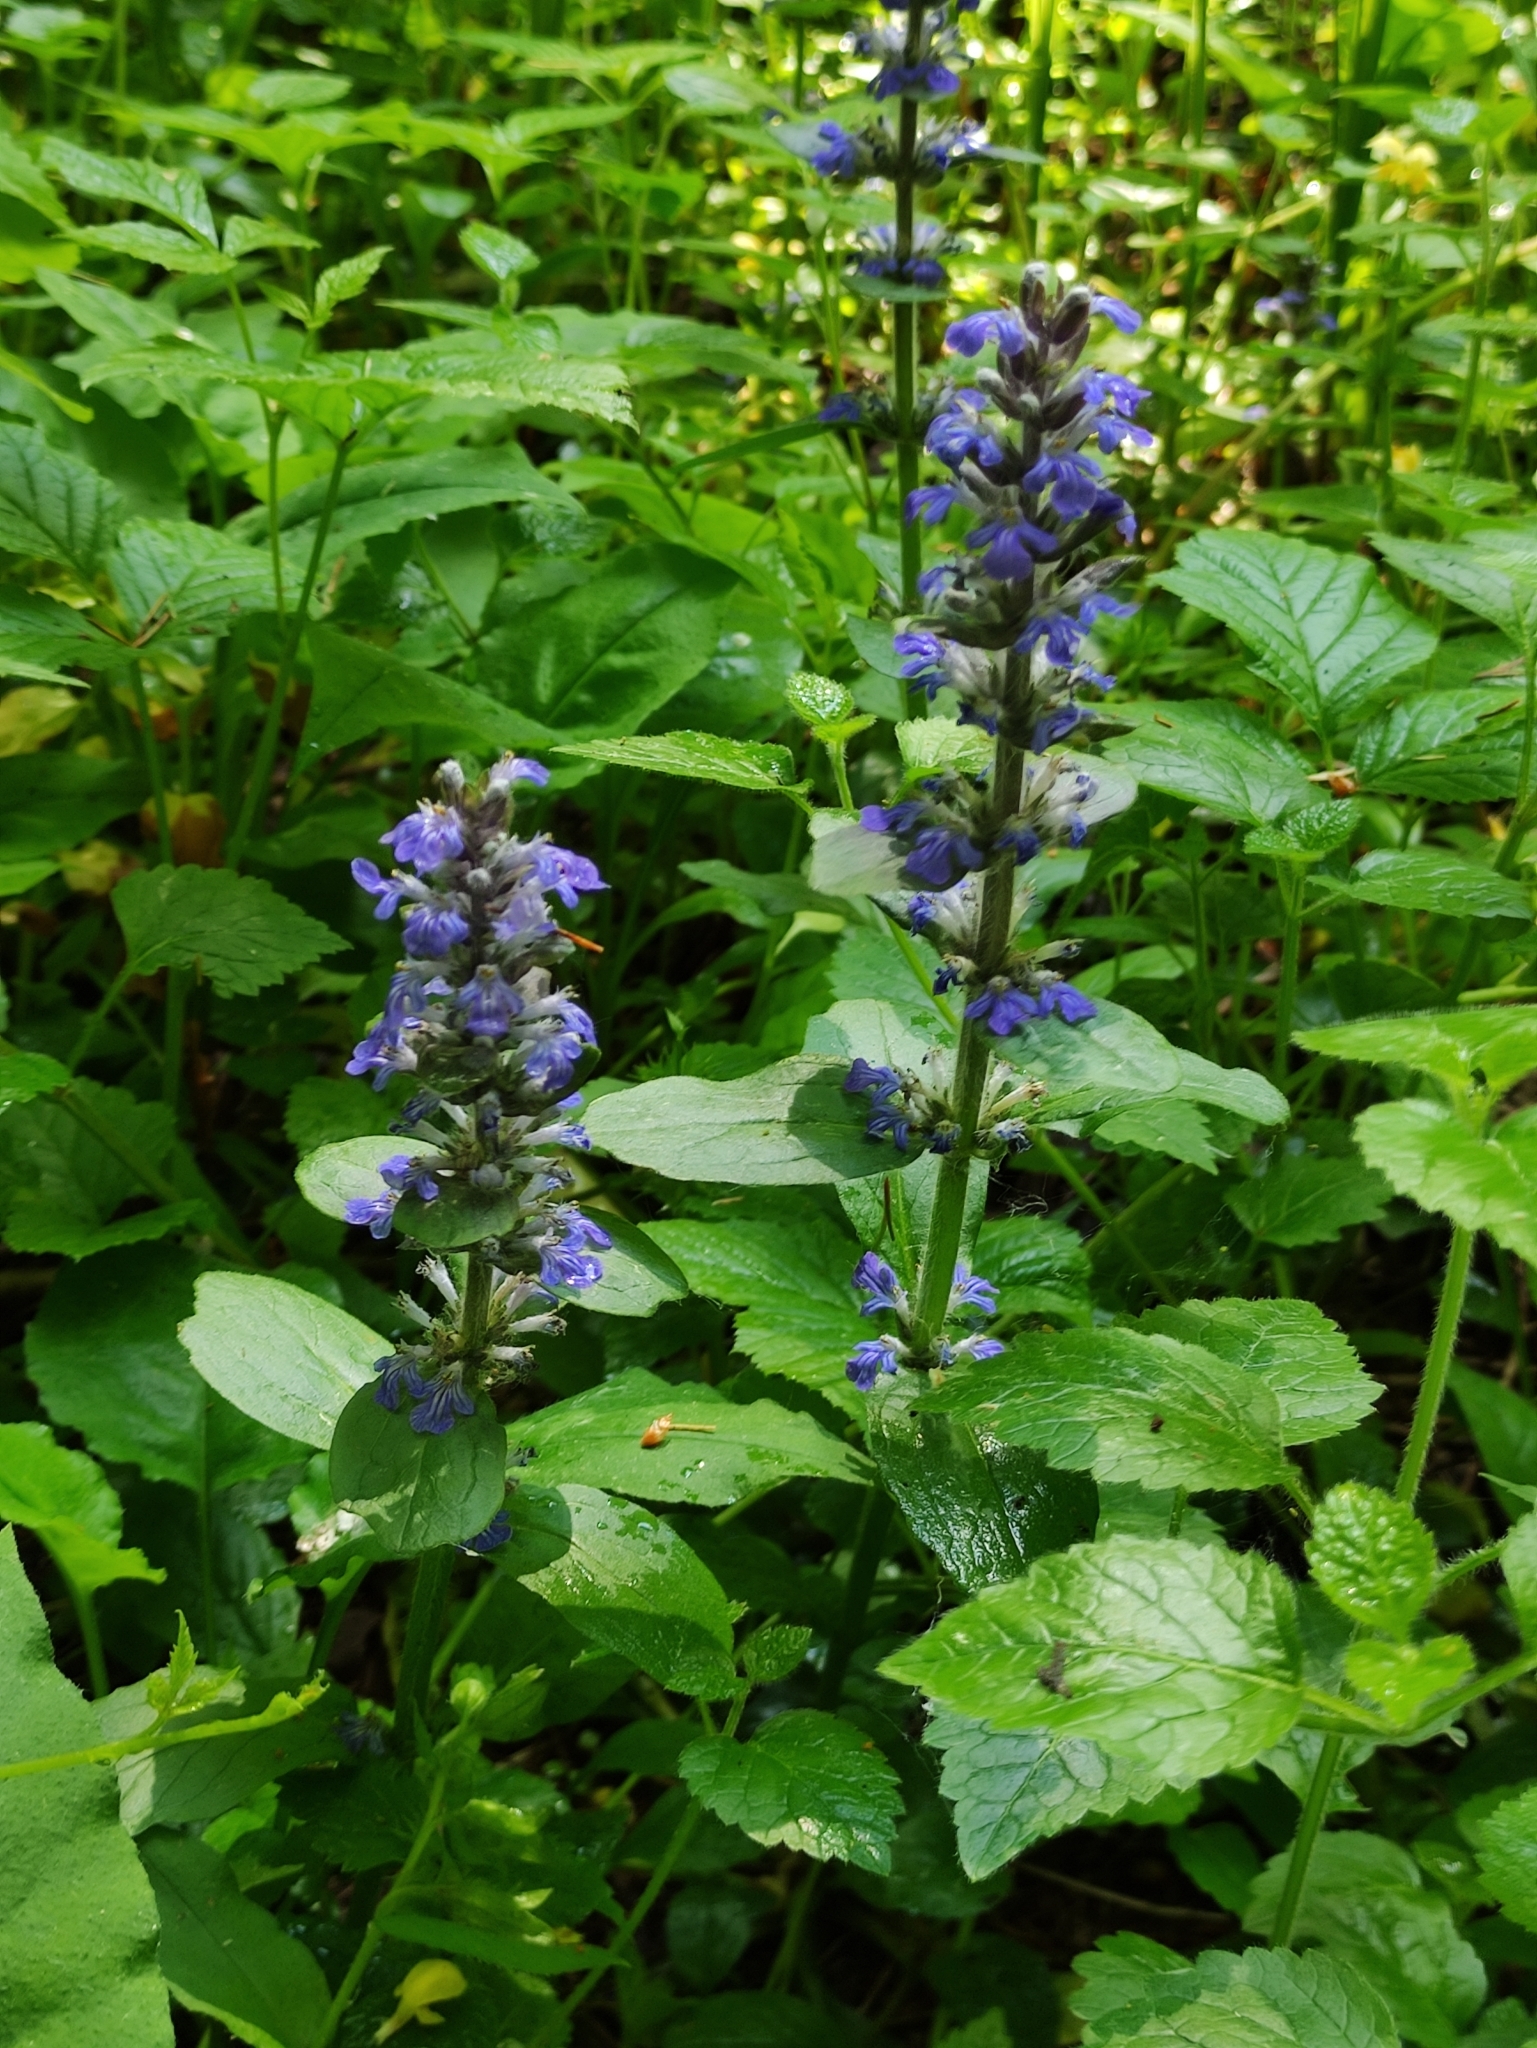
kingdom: Plantae
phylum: Tracheophyta
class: Magnoliopsida
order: Lamiales
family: Lamiaceae
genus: Ajuga
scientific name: Ajuga reptans
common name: Bugle
